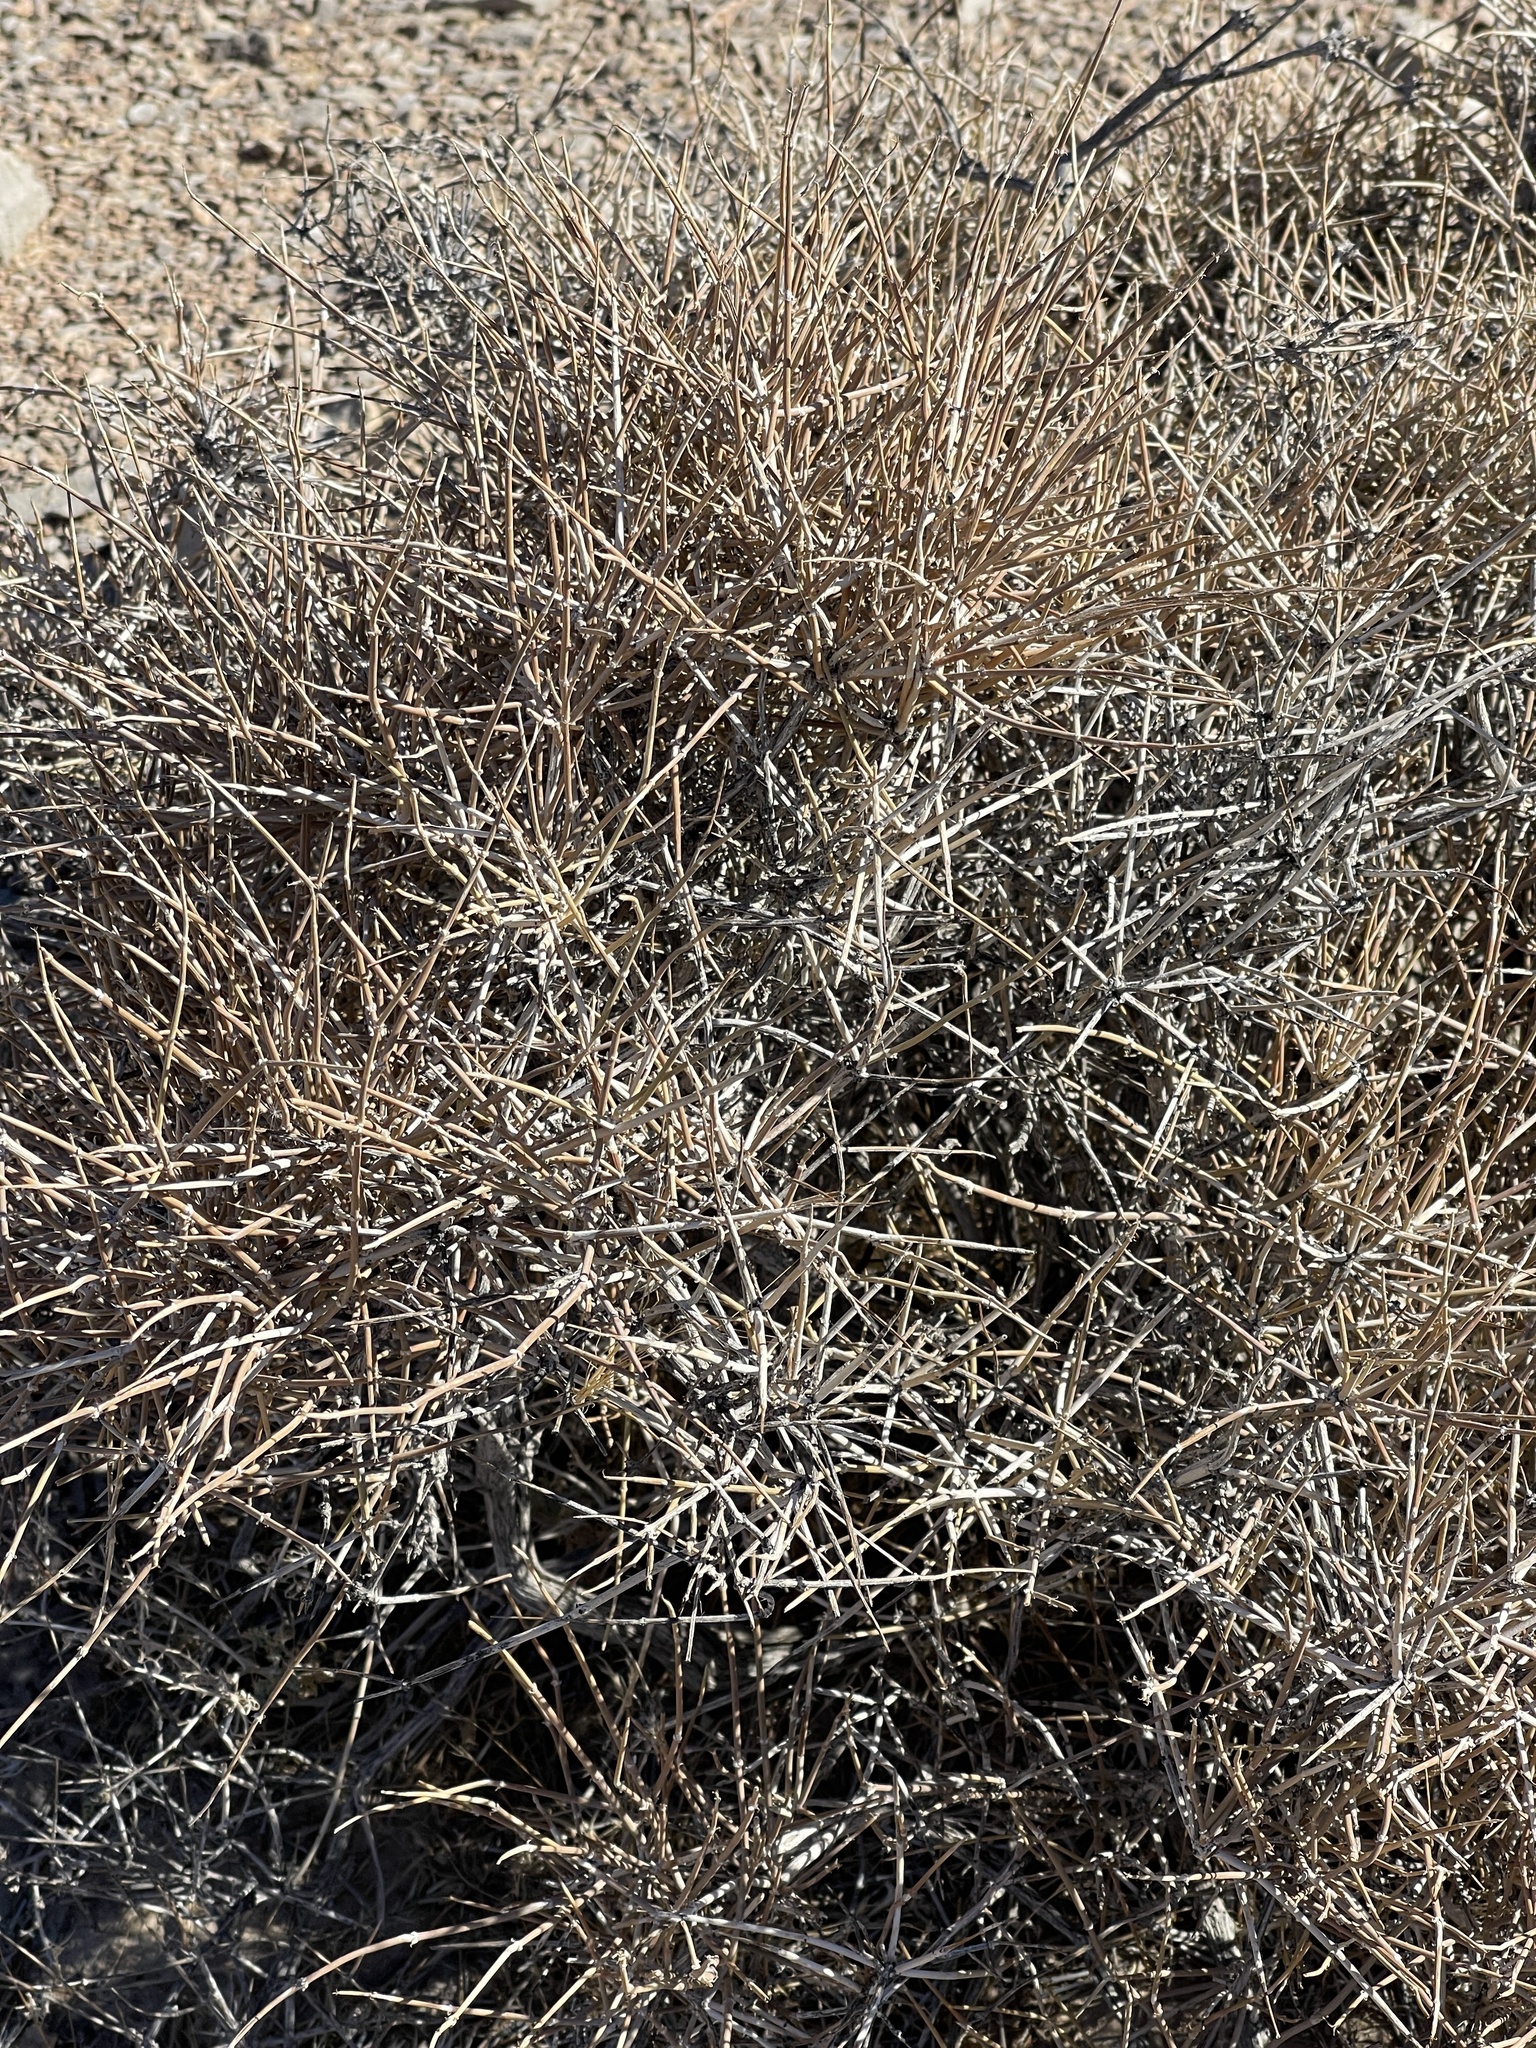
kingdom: Plantae
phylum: Tracheophyta
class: Gnetopsida
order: Ephedrales
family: Ephedraceae
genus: Ephedra
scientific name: Ephedra nevadensis
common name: Gray ephedra
